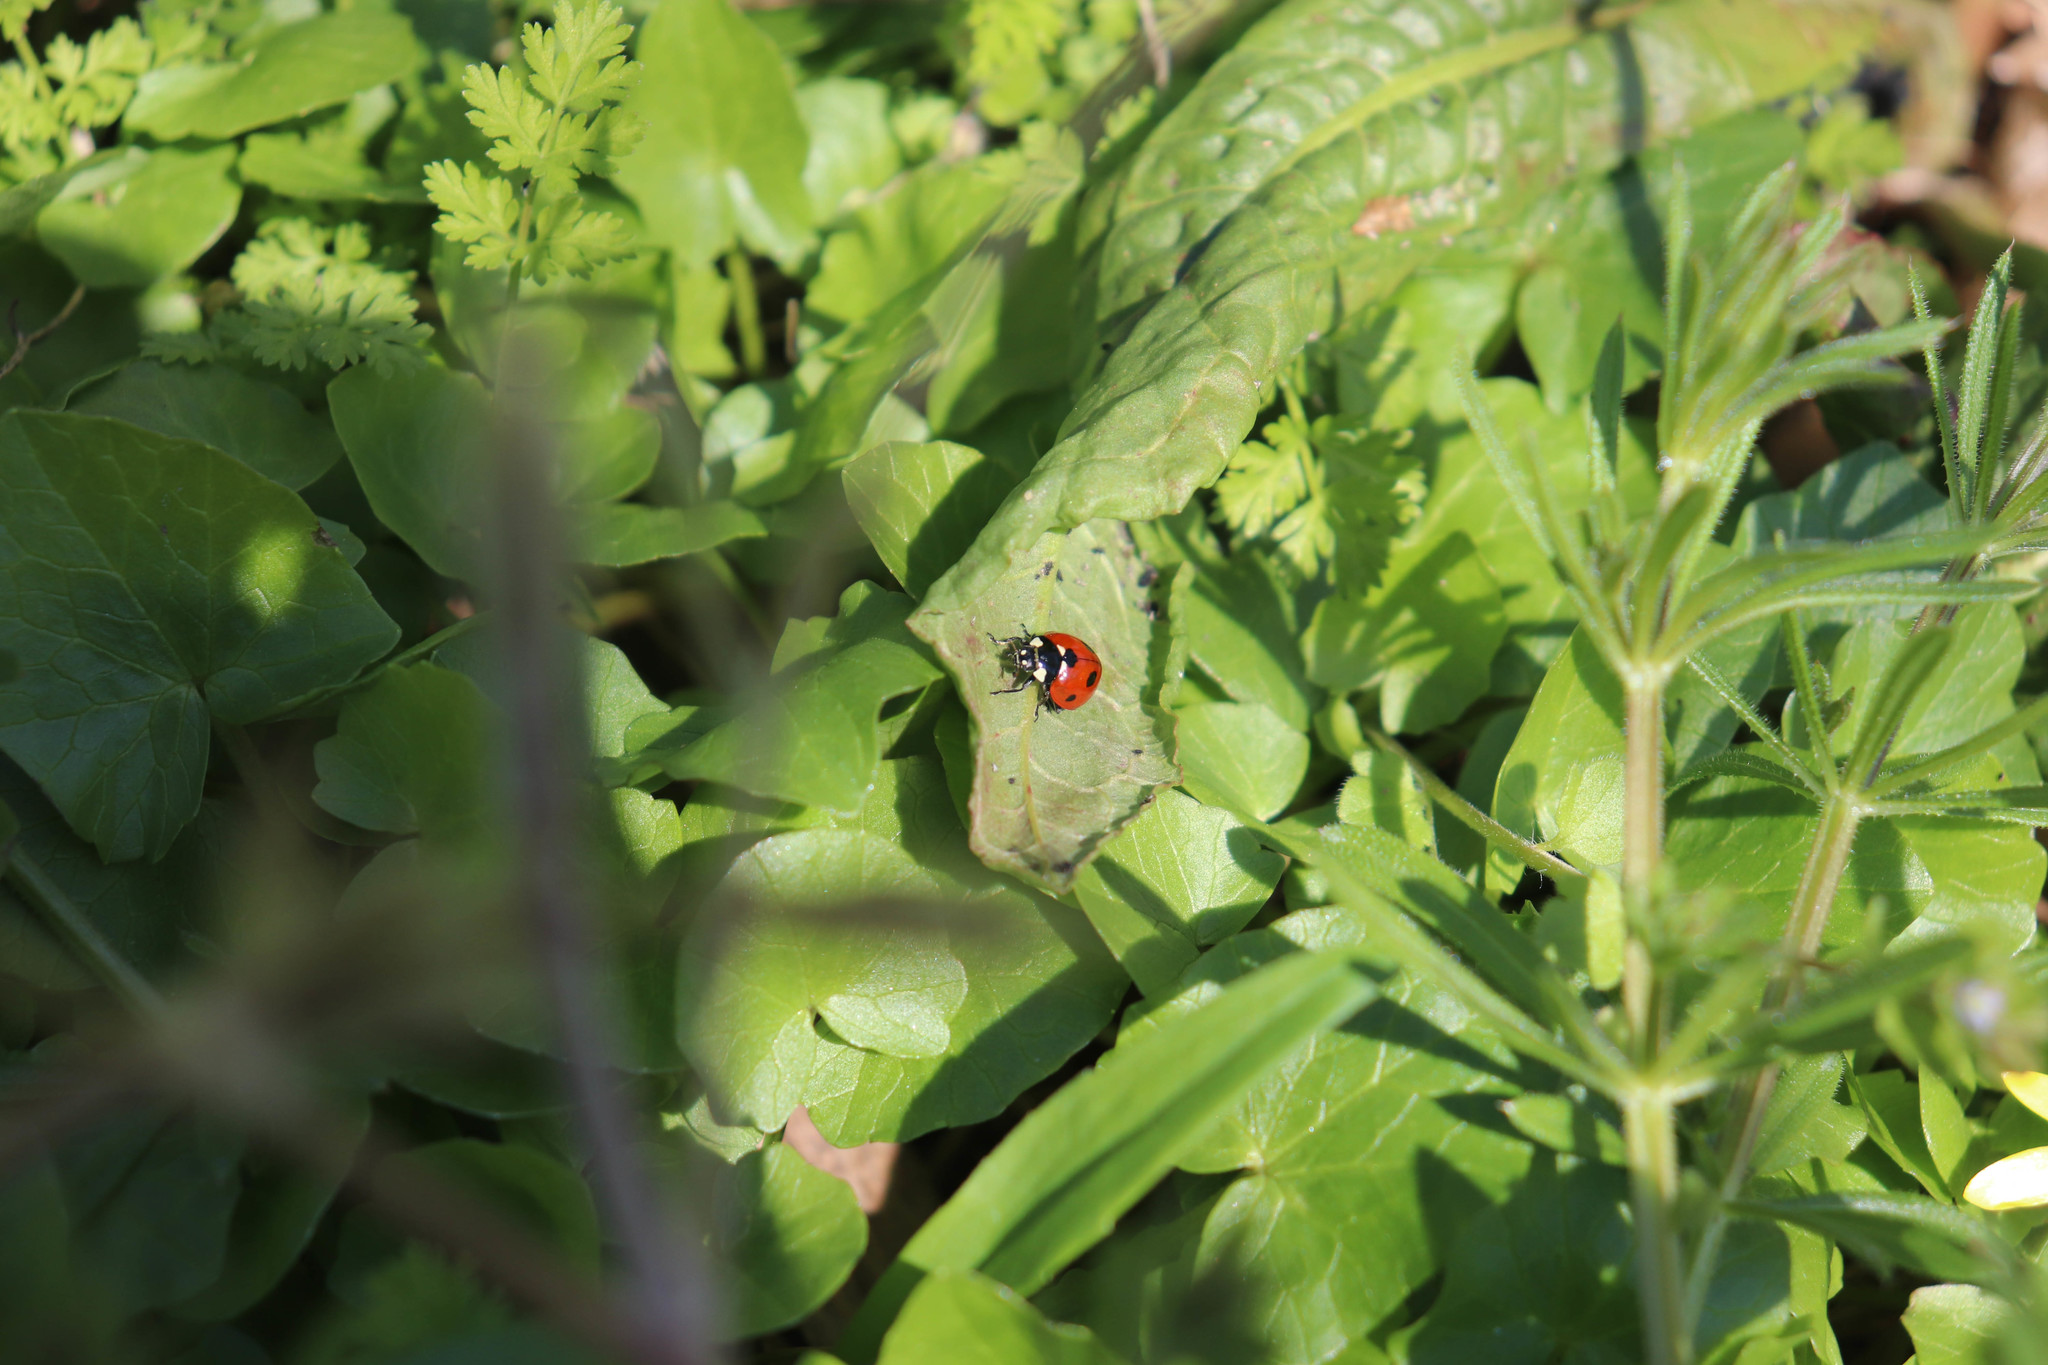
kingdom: Animalia
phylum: Arthropoda
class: Insecta
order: Coleoptera
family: Coccinellidae
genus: Coccinella
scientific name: Coccinella septempunctata
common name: Sevenspotted lady beetle
